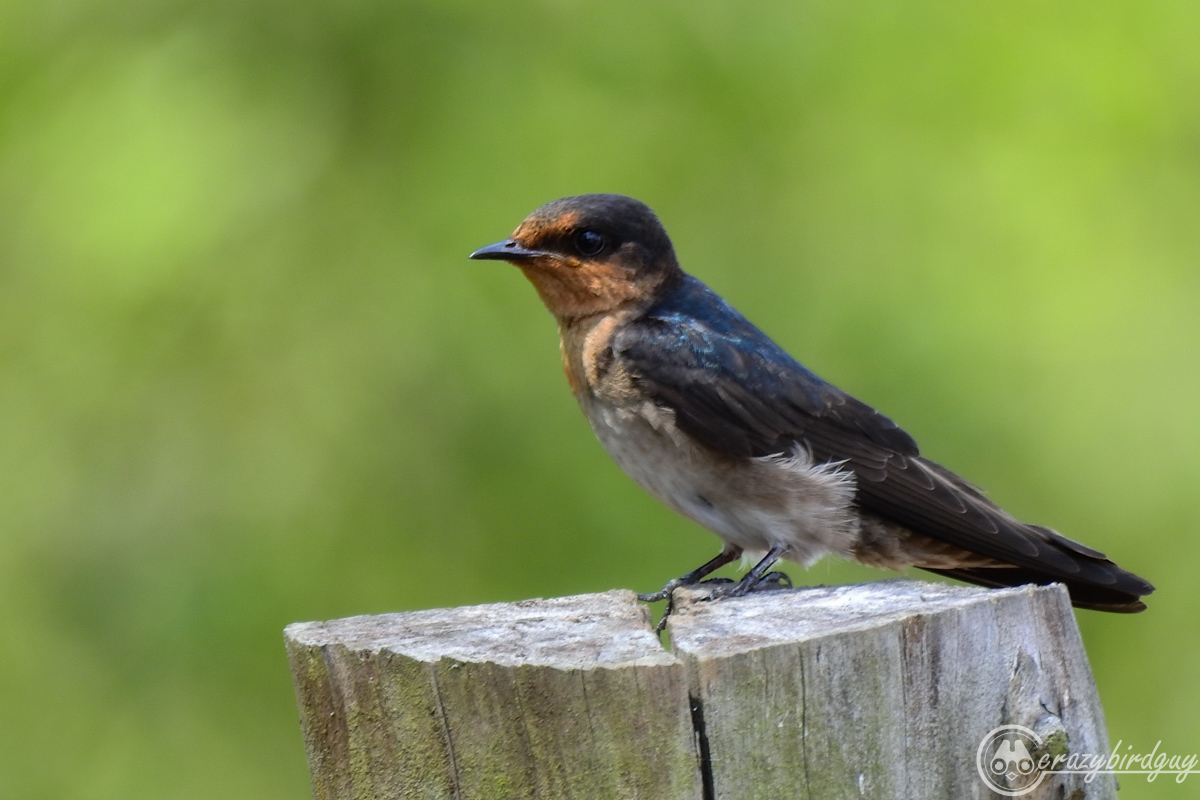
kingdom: Animalia
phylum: Chordata
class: Aves
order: Passeriformes
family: Hirundinidae
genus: Hirundo
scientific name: Hirundo tahitica
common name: Pacific swallow
